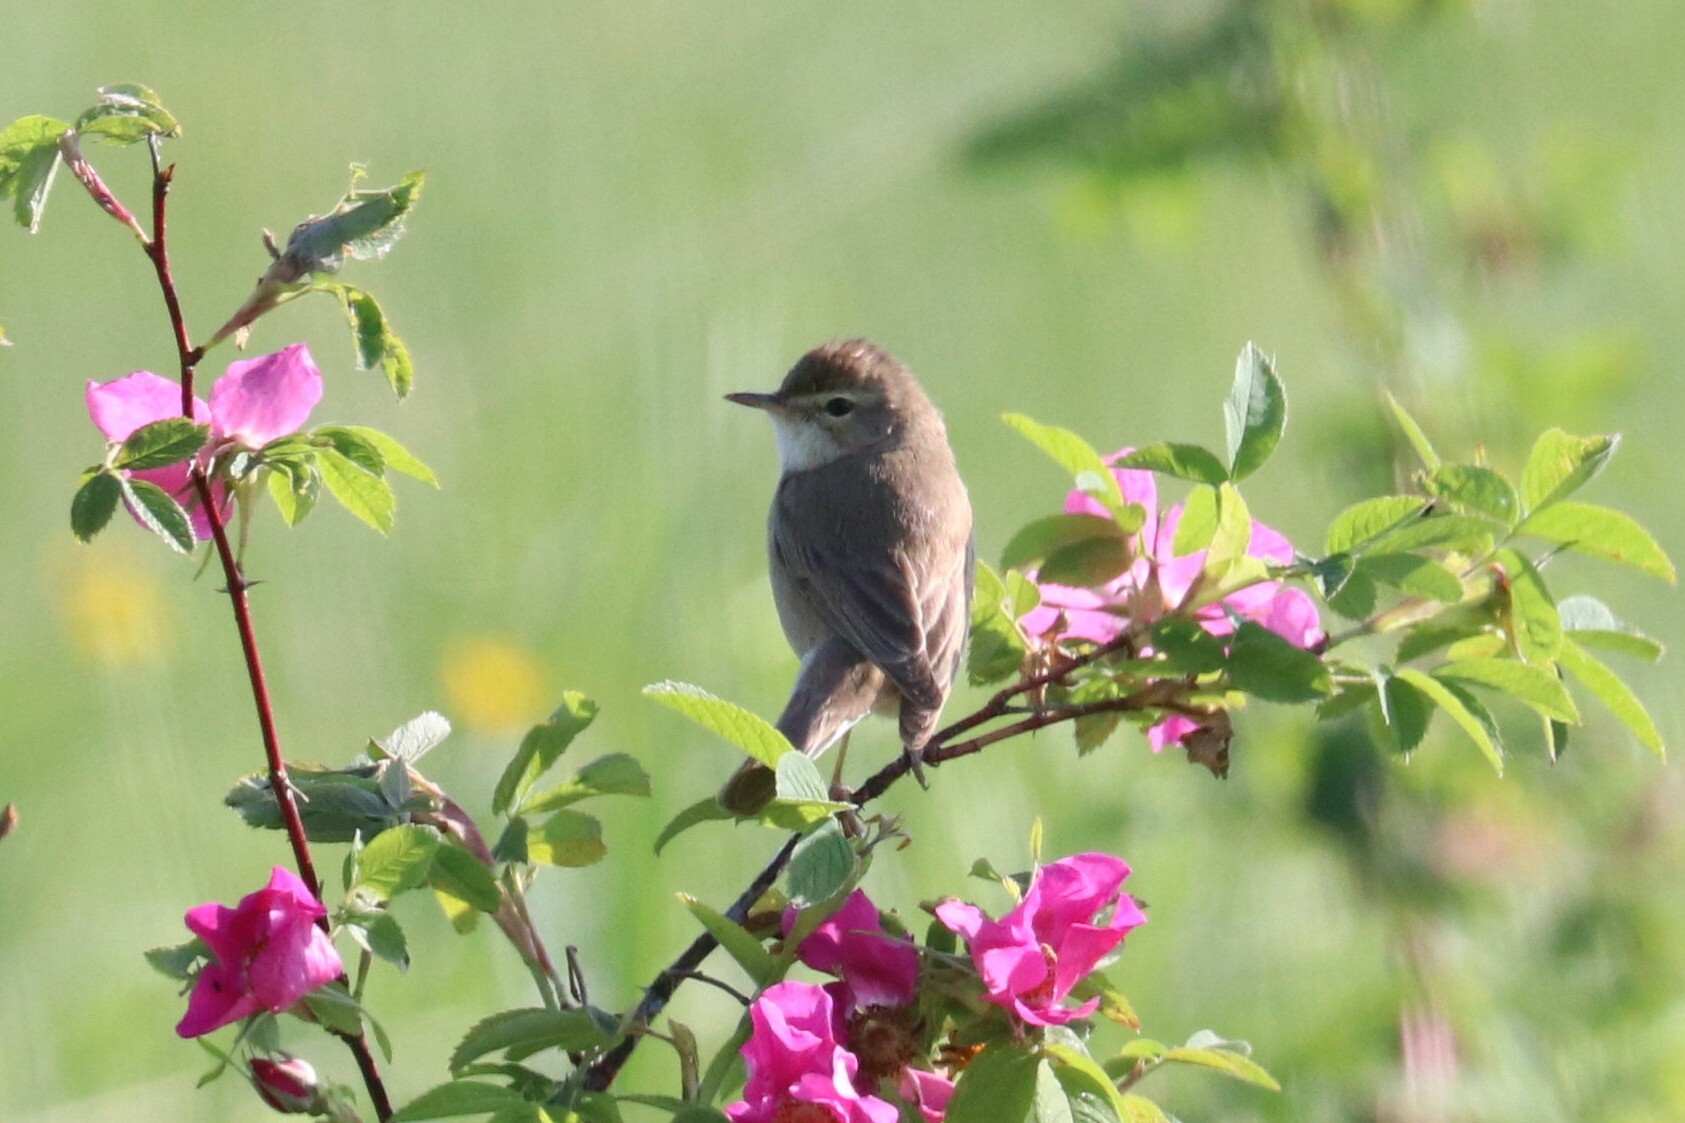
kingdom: Animalia
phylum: Chordata
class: Aves
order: Passeriformes
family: Acrocephalidae
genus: Iduna
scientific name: Iduna caligata
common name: Booted warbler
